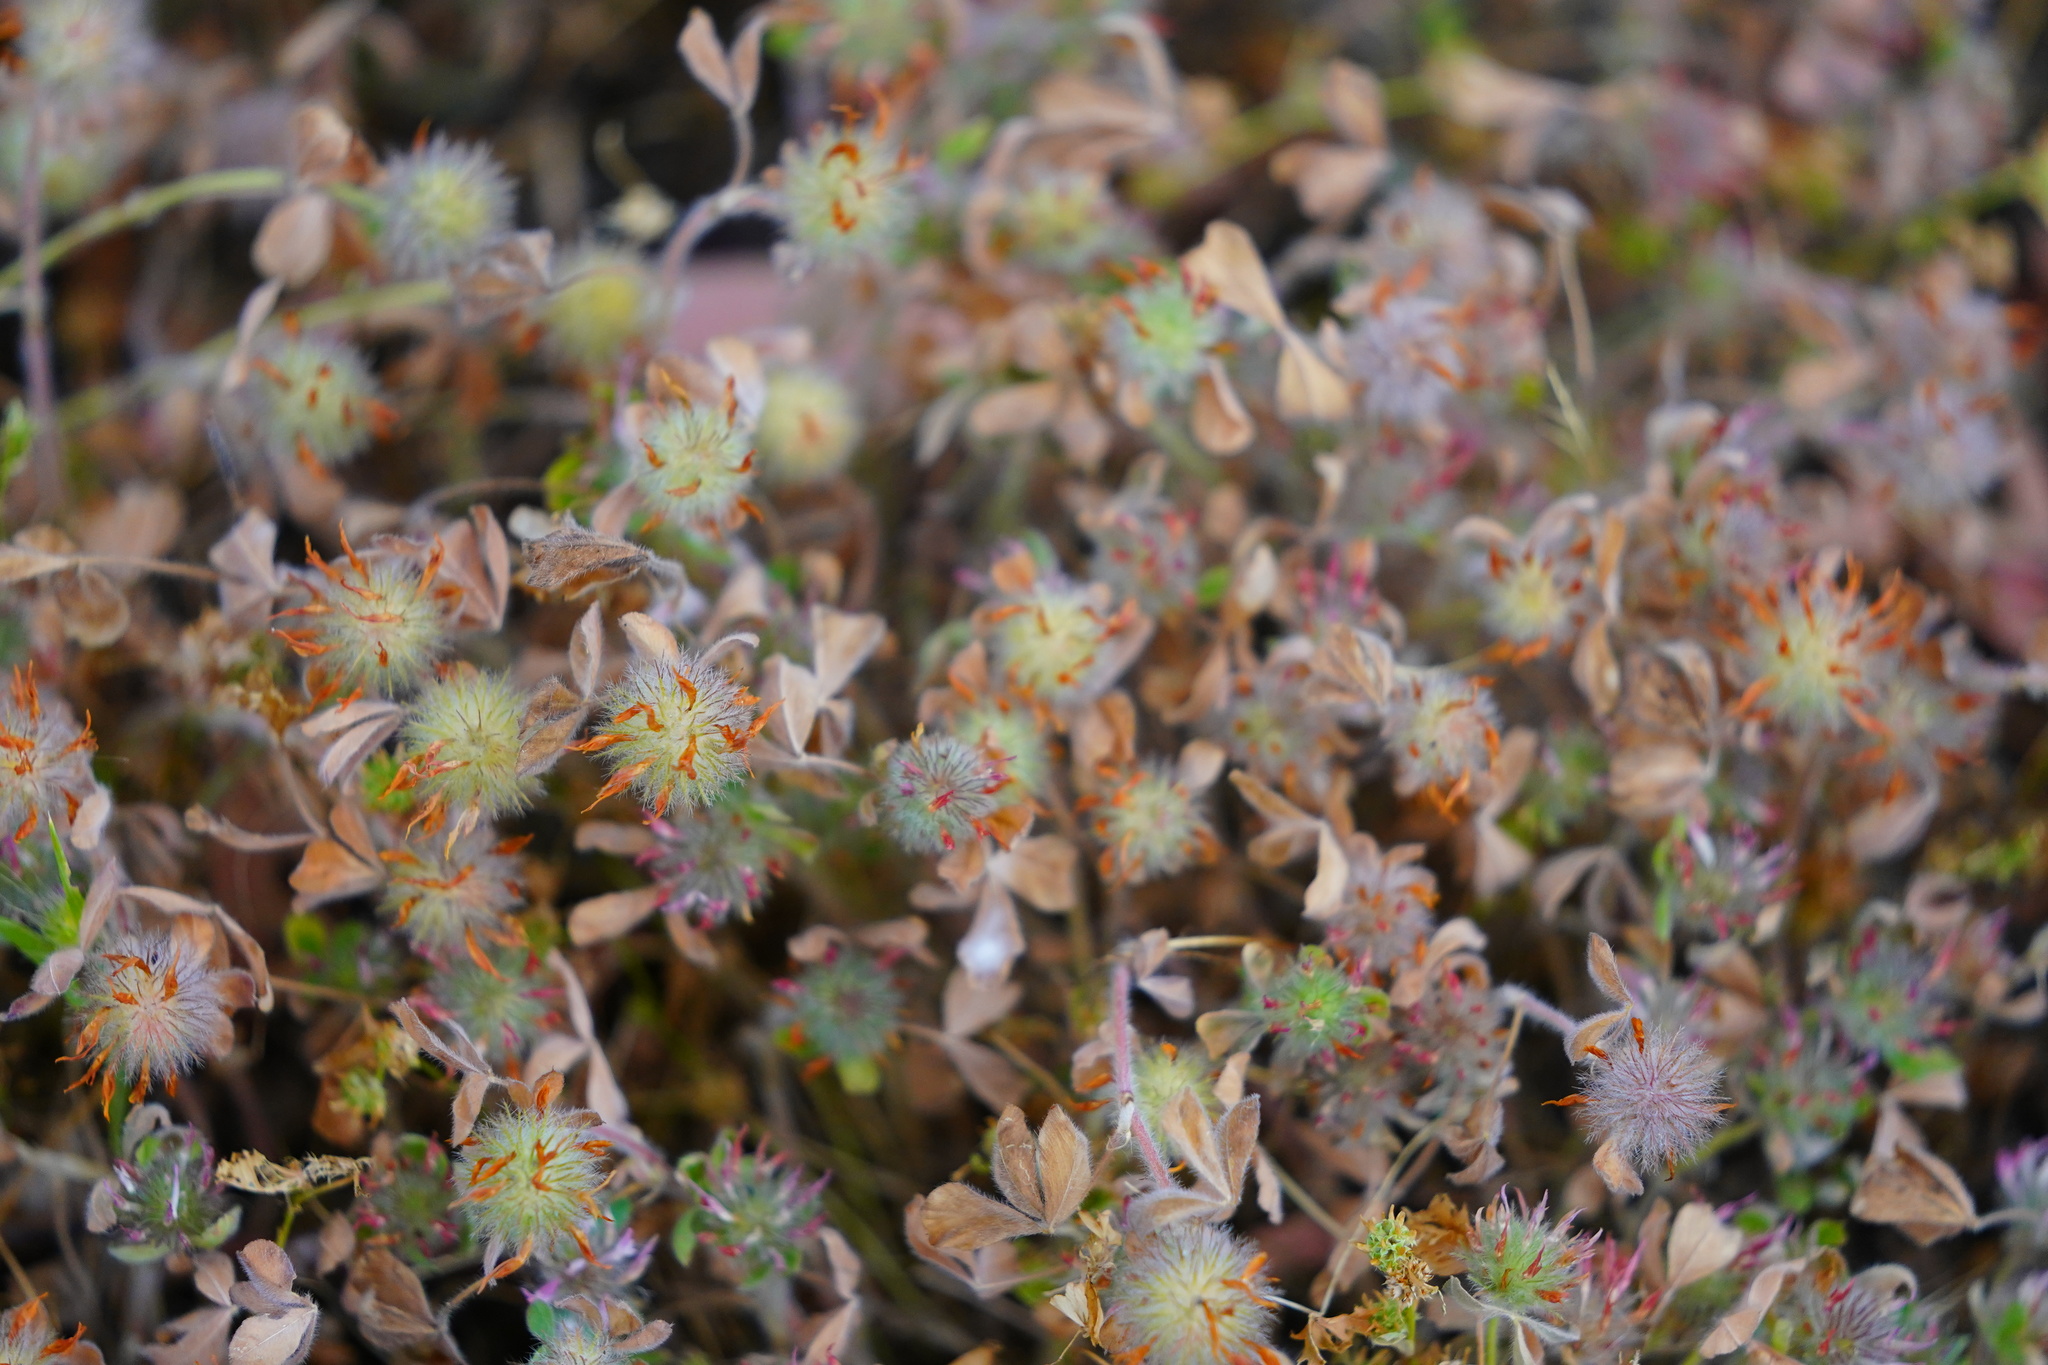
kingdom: Plantae
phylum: Tracheophyta
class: Magnoliopsida
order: Fabales
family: Fabaceae
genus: Trifolium
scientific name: Trifolium hirtum
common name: Rose clover
